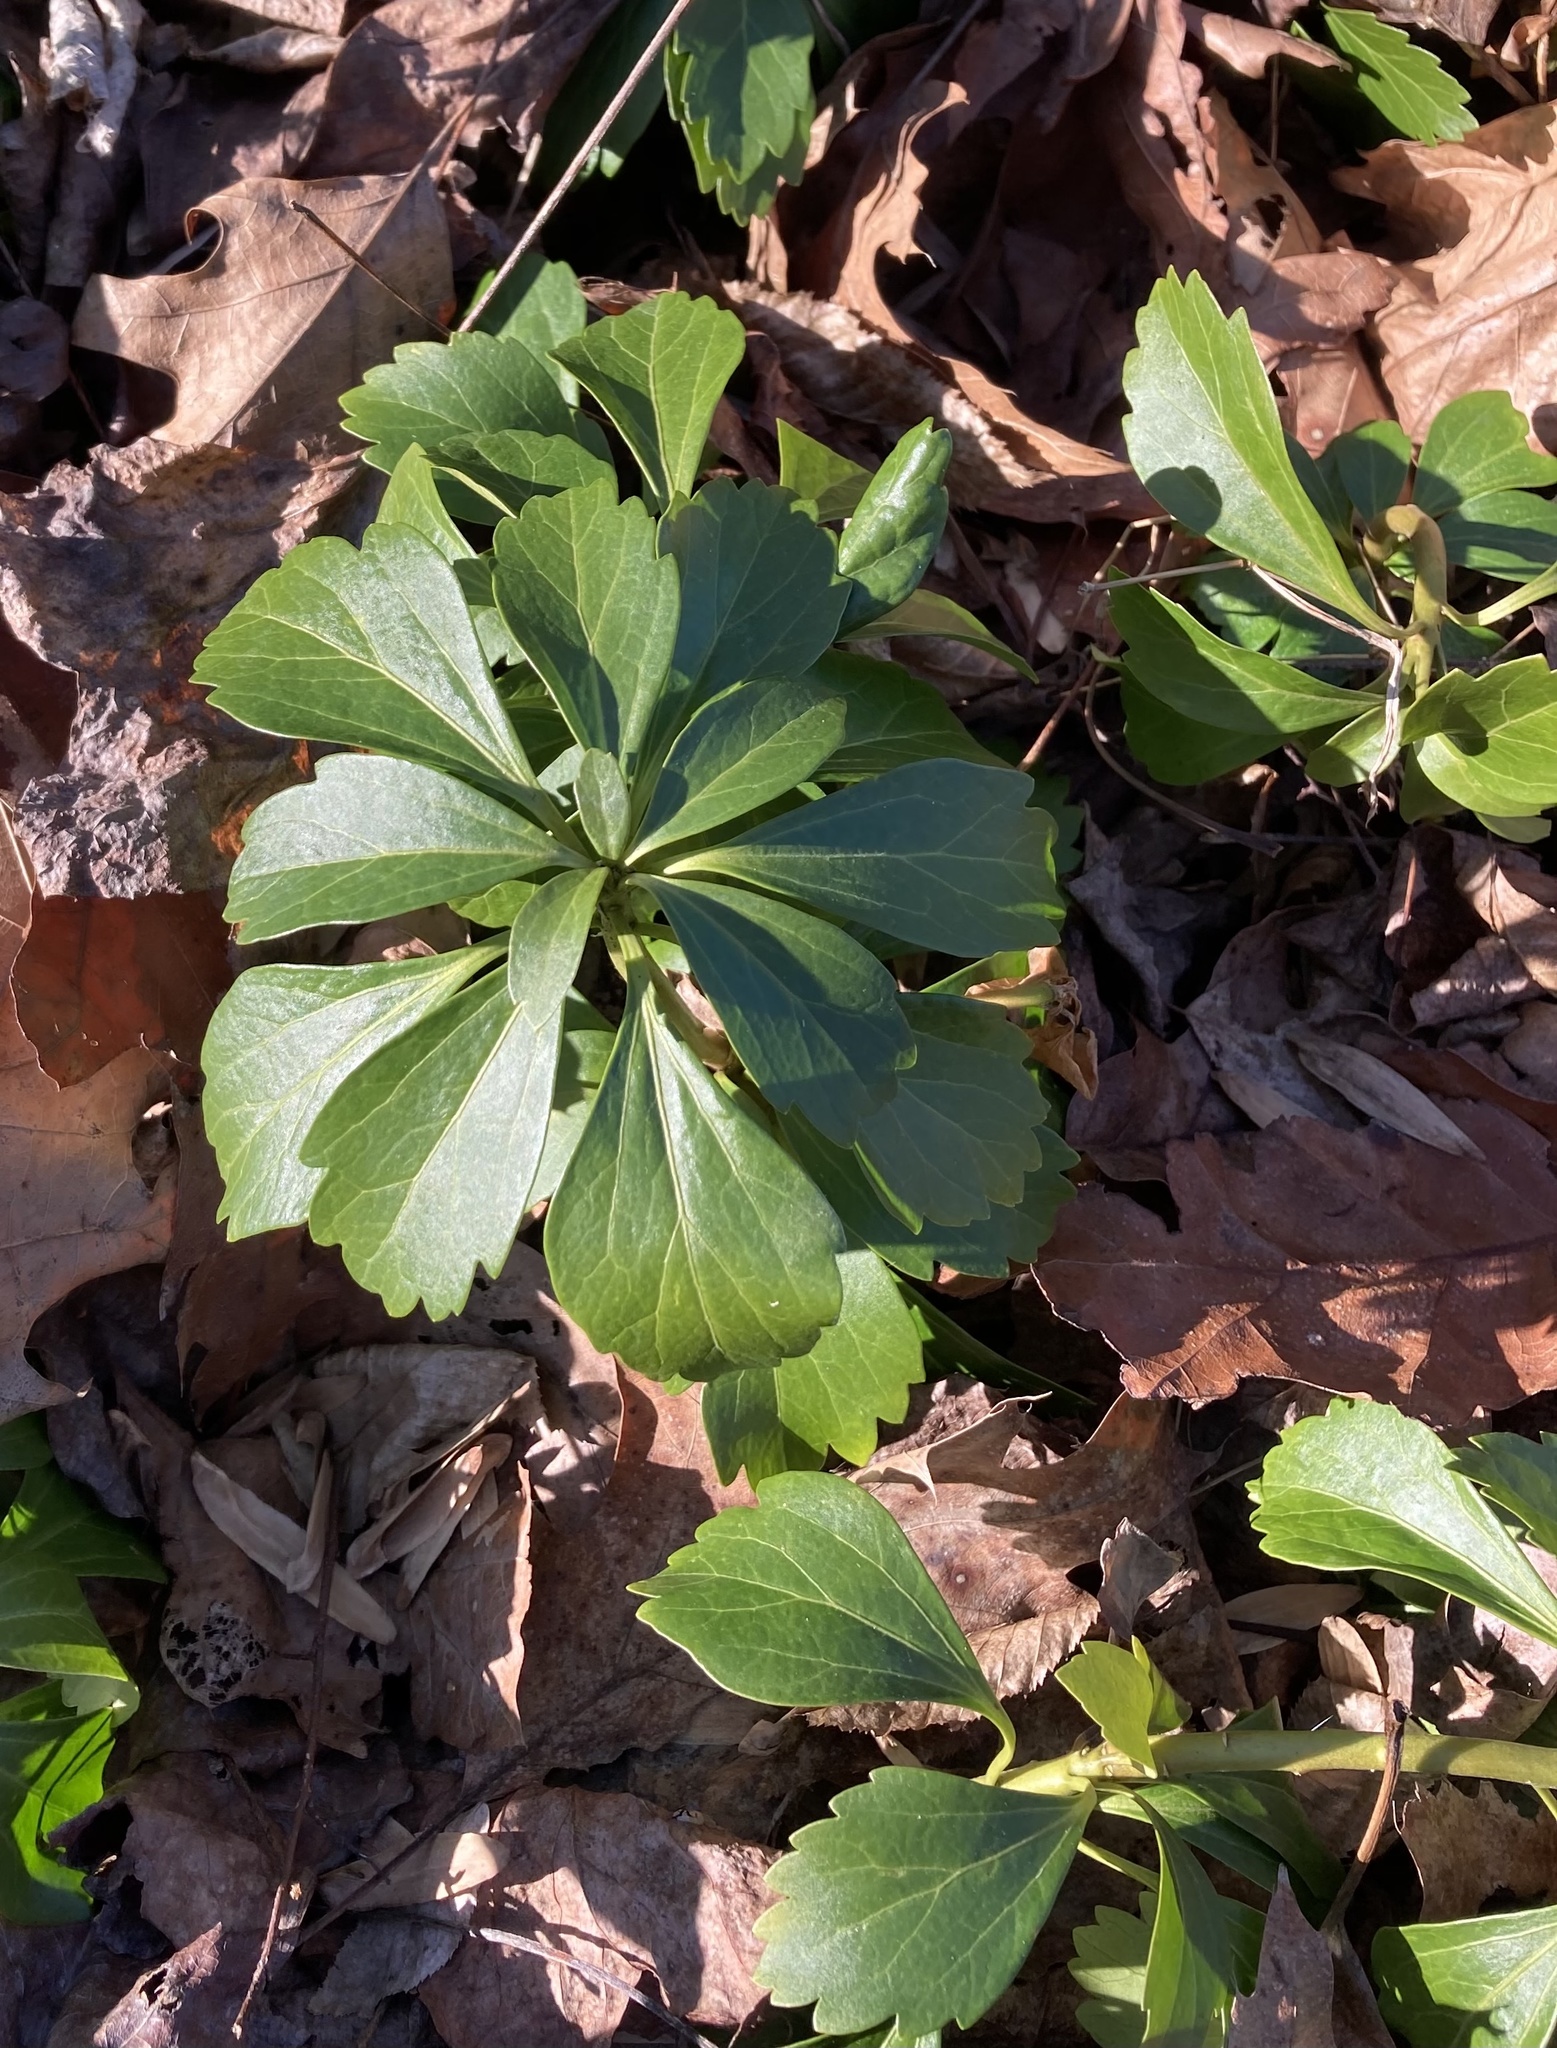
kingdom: Plantae
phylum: Tracheophyta
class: Magnoliopsida
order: Buxales
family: Buxaceae
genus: Pachysandra
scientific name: Pachysandra terminalis
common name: Japanese pachysandra
